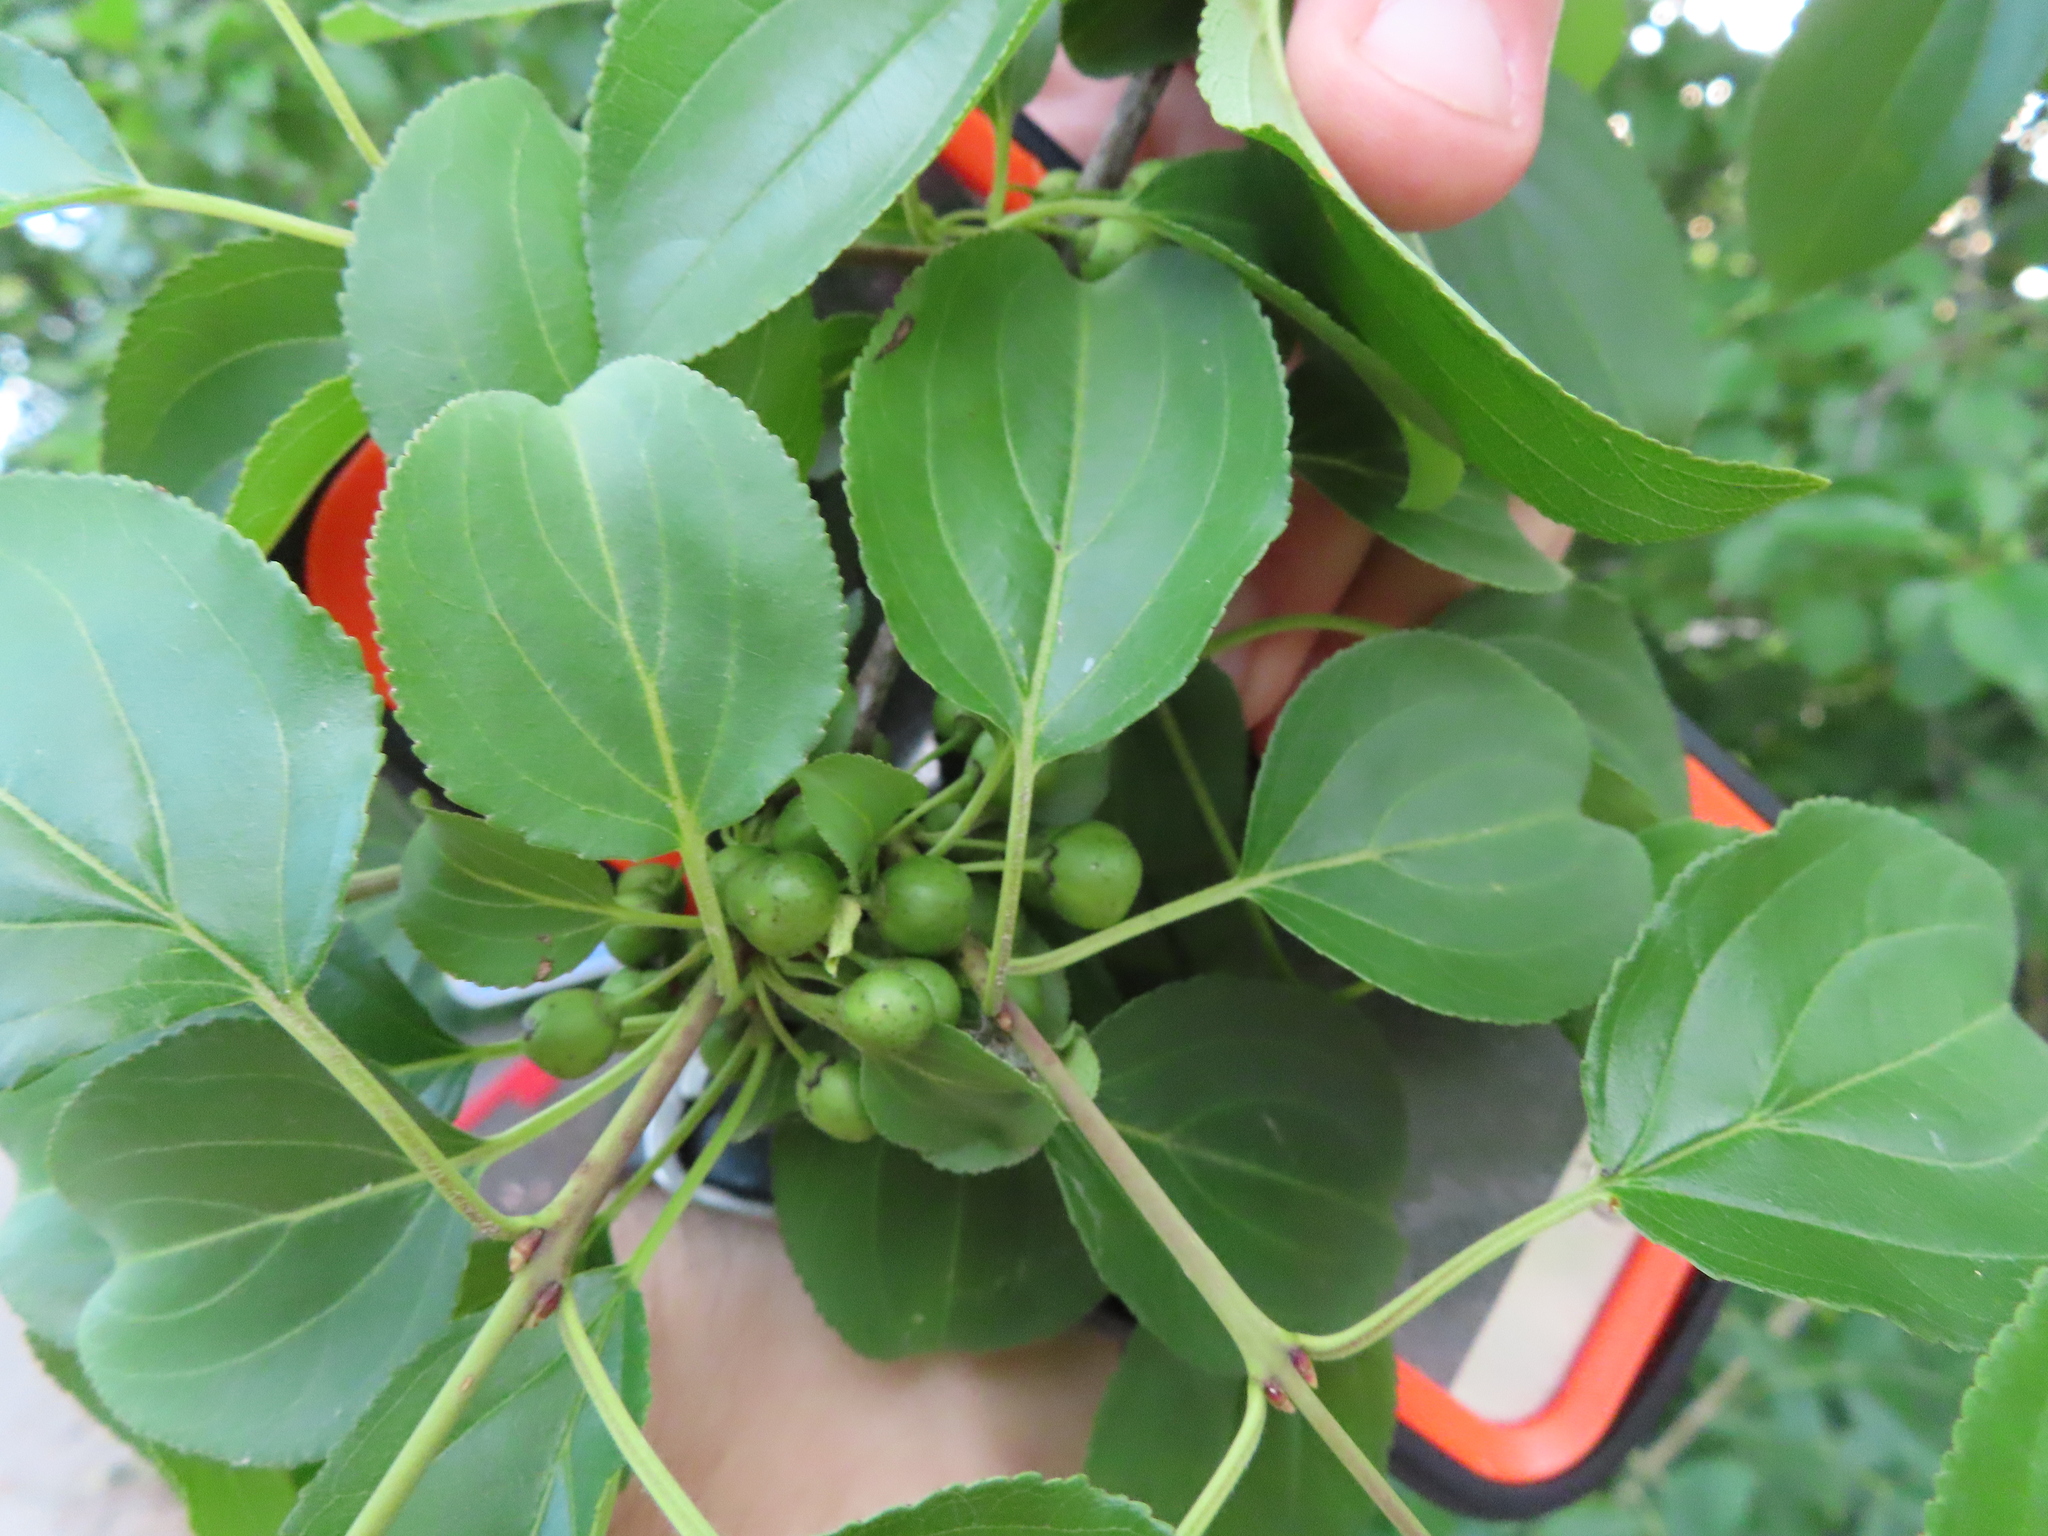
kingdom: Plantae
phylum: Tracheophyta
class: Magnoliopsida
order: Rosales
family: Rhamnaceae
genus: Rhamnus
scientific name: Rhamnus cathartica
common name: Common buckthorn
